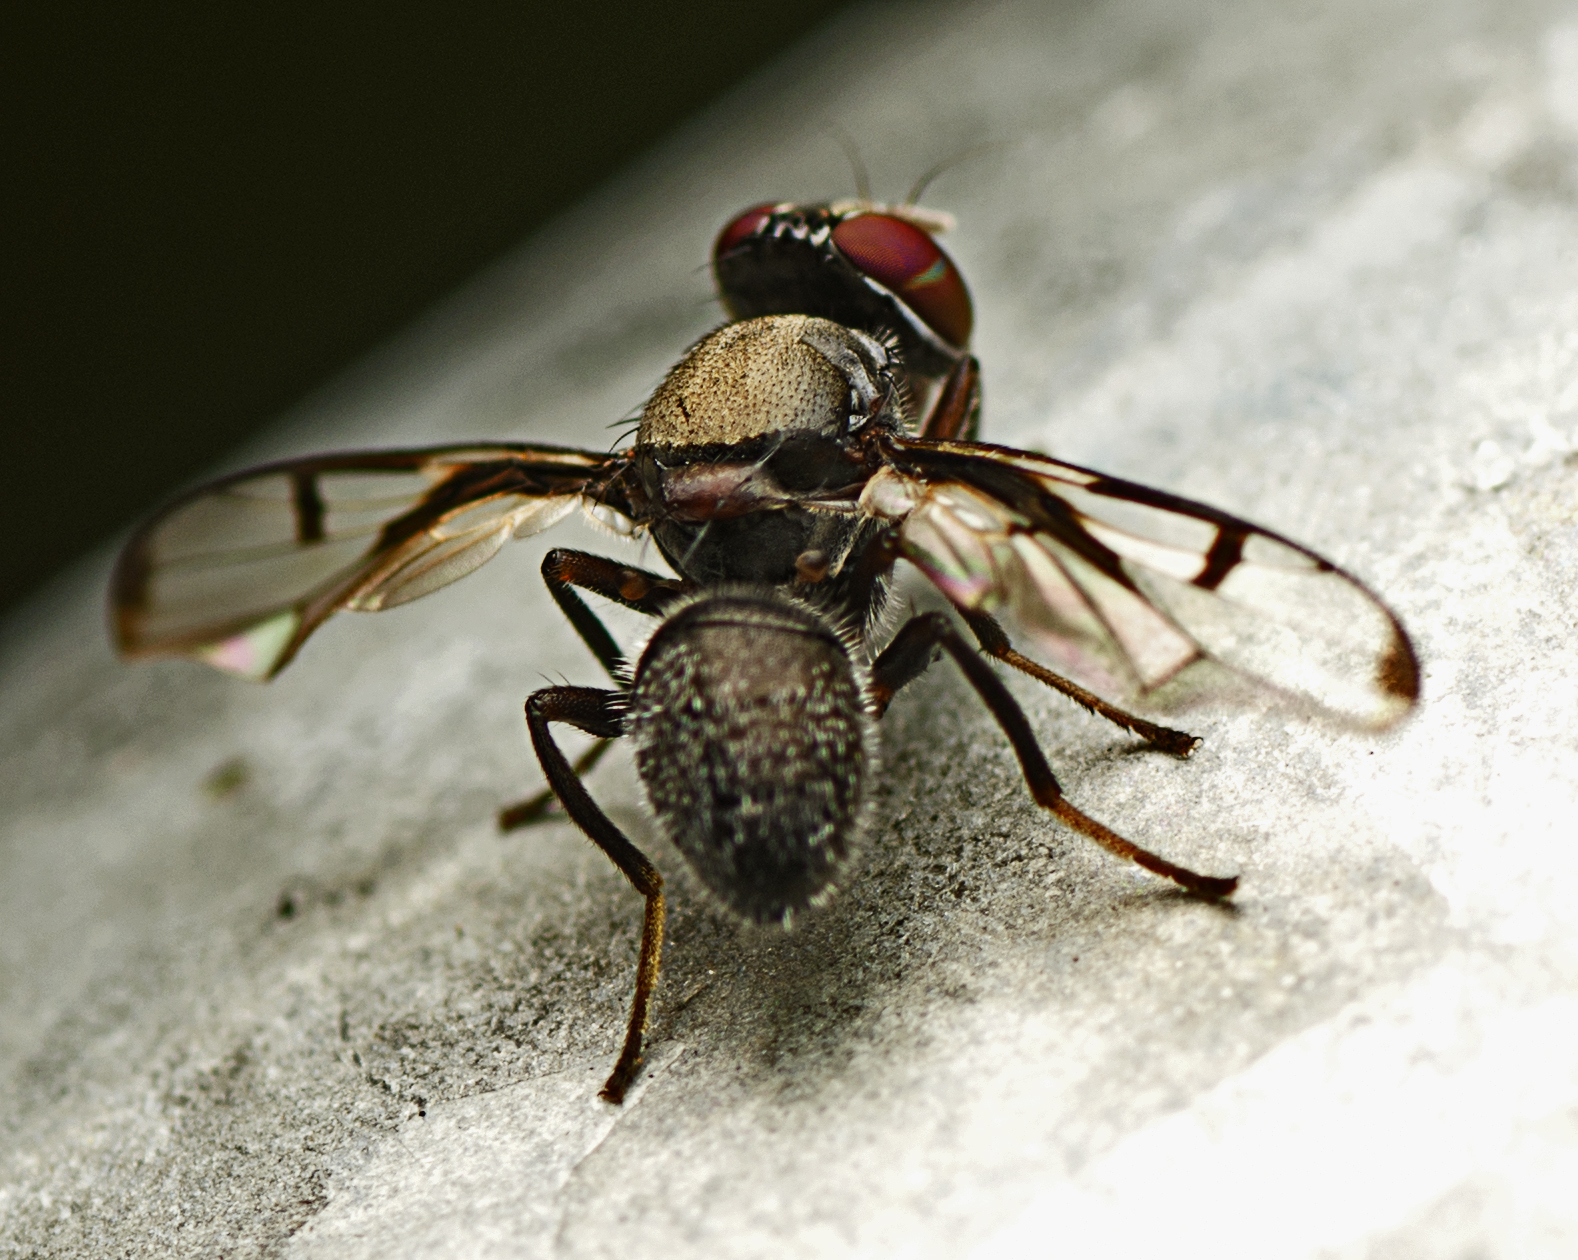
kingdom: Animalia
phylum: Arthropoda
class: Insecta
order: Diptera
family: Platystomatidae
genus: Pogonortalis
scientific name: Pogonortalis doclea
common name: Boatman fly
